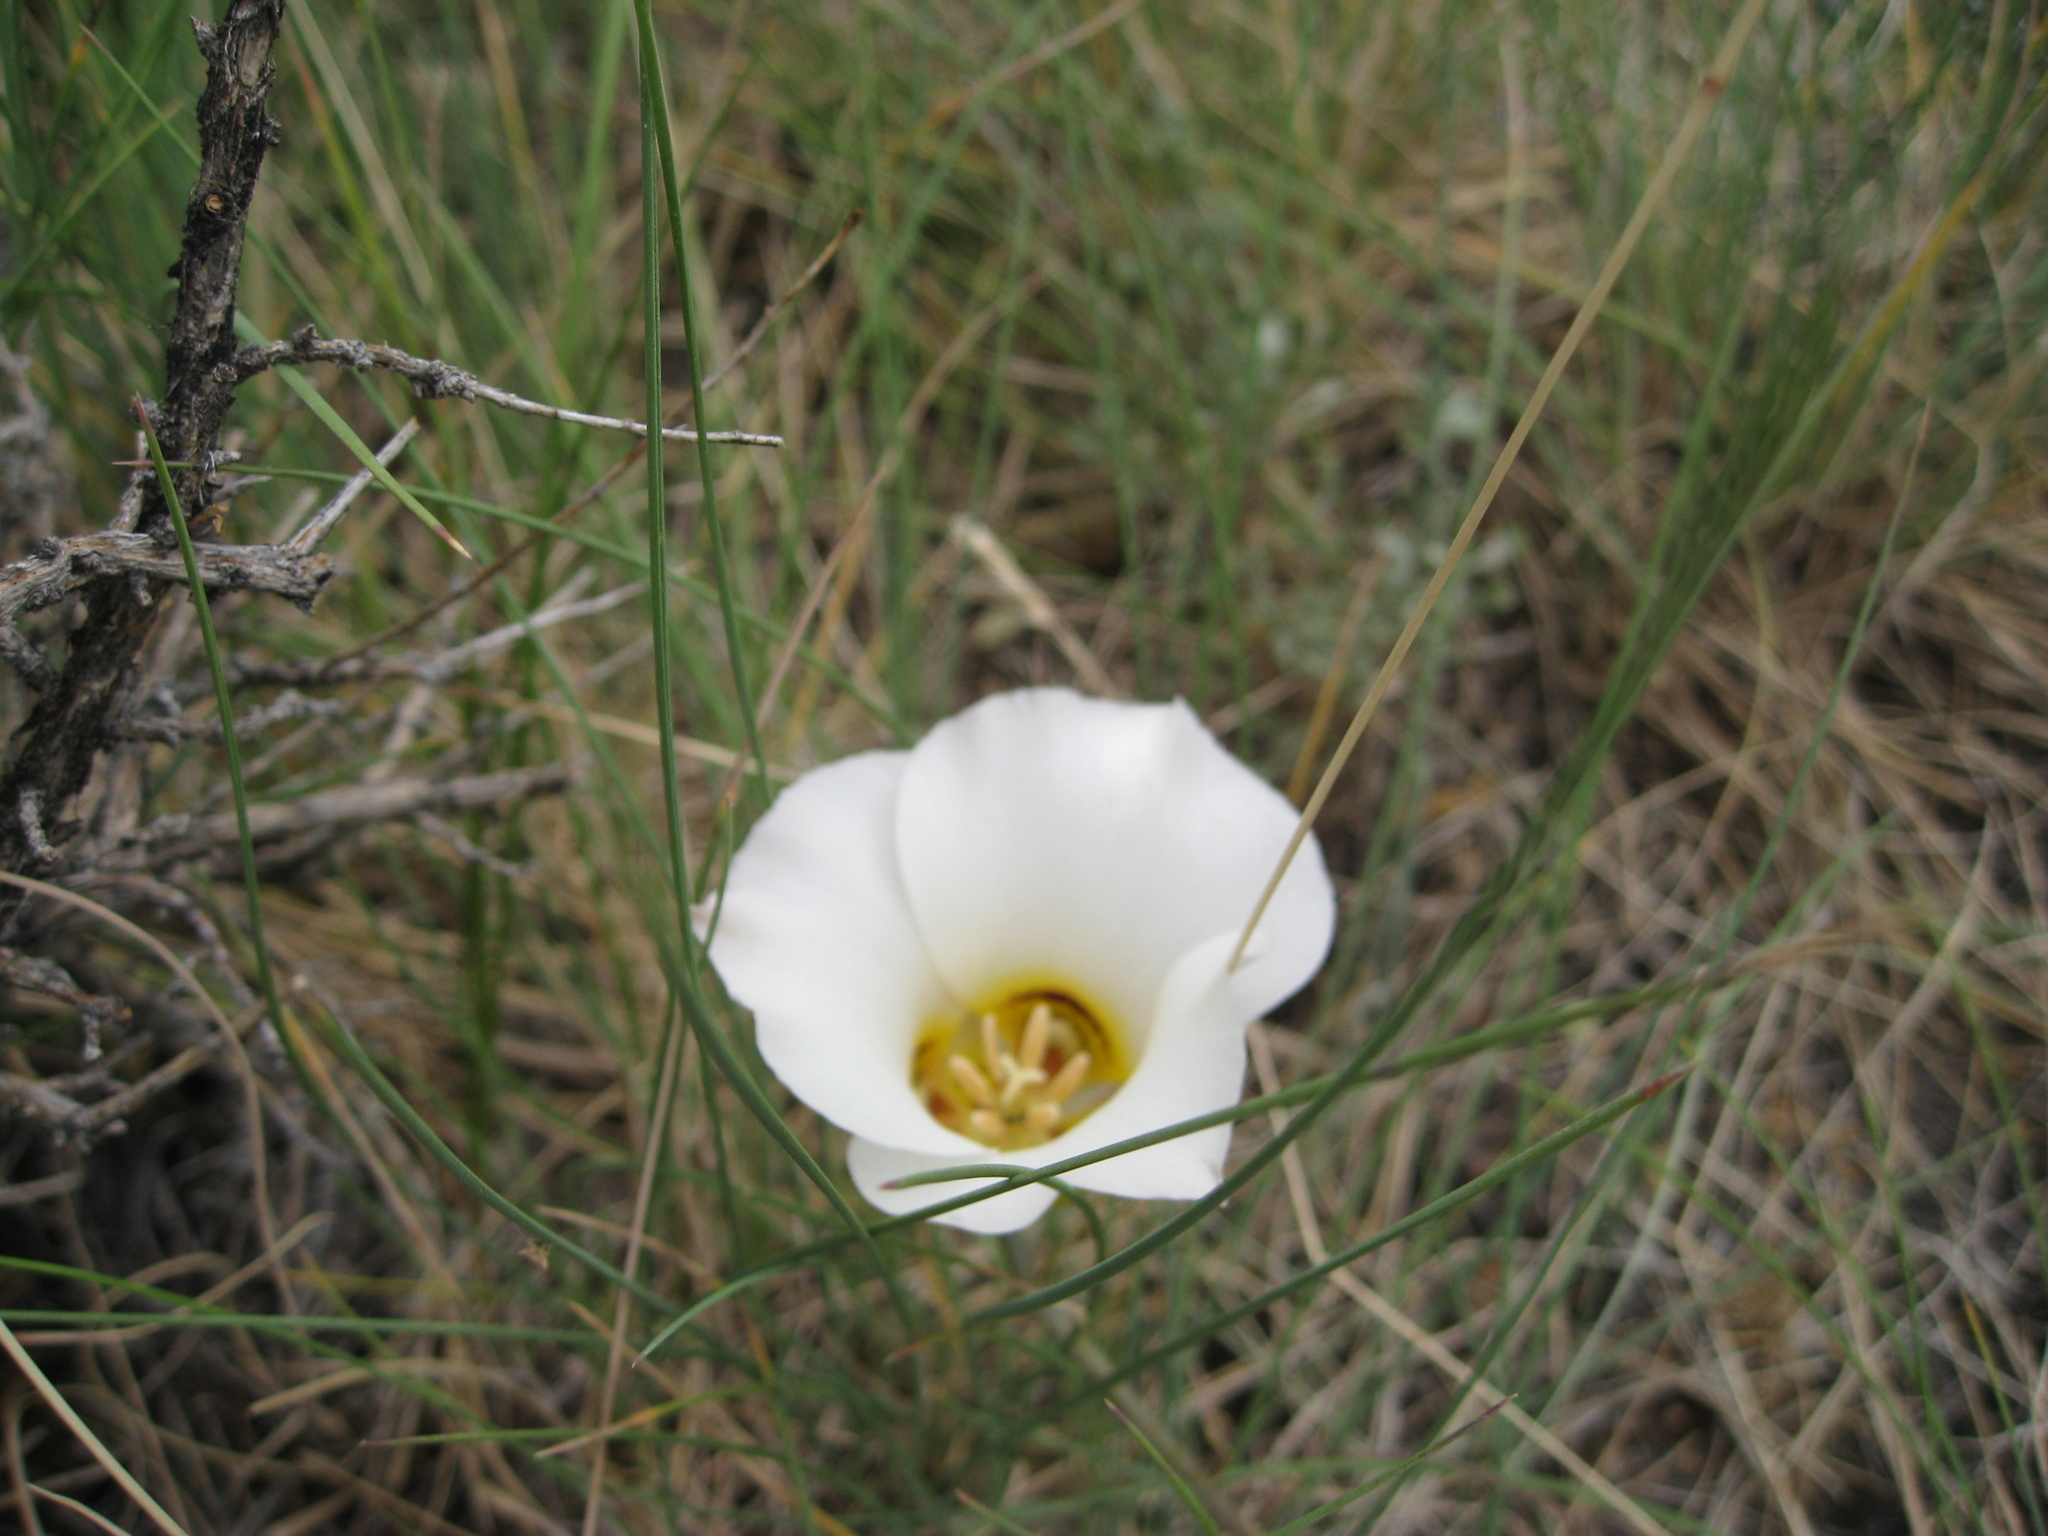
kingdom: Plantae
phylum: Tracheophyta
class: Liliopsida
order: Liliales
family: Liliaceae
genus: Calochortus
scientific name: Calochortus nuttallii
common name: Sego-lily
